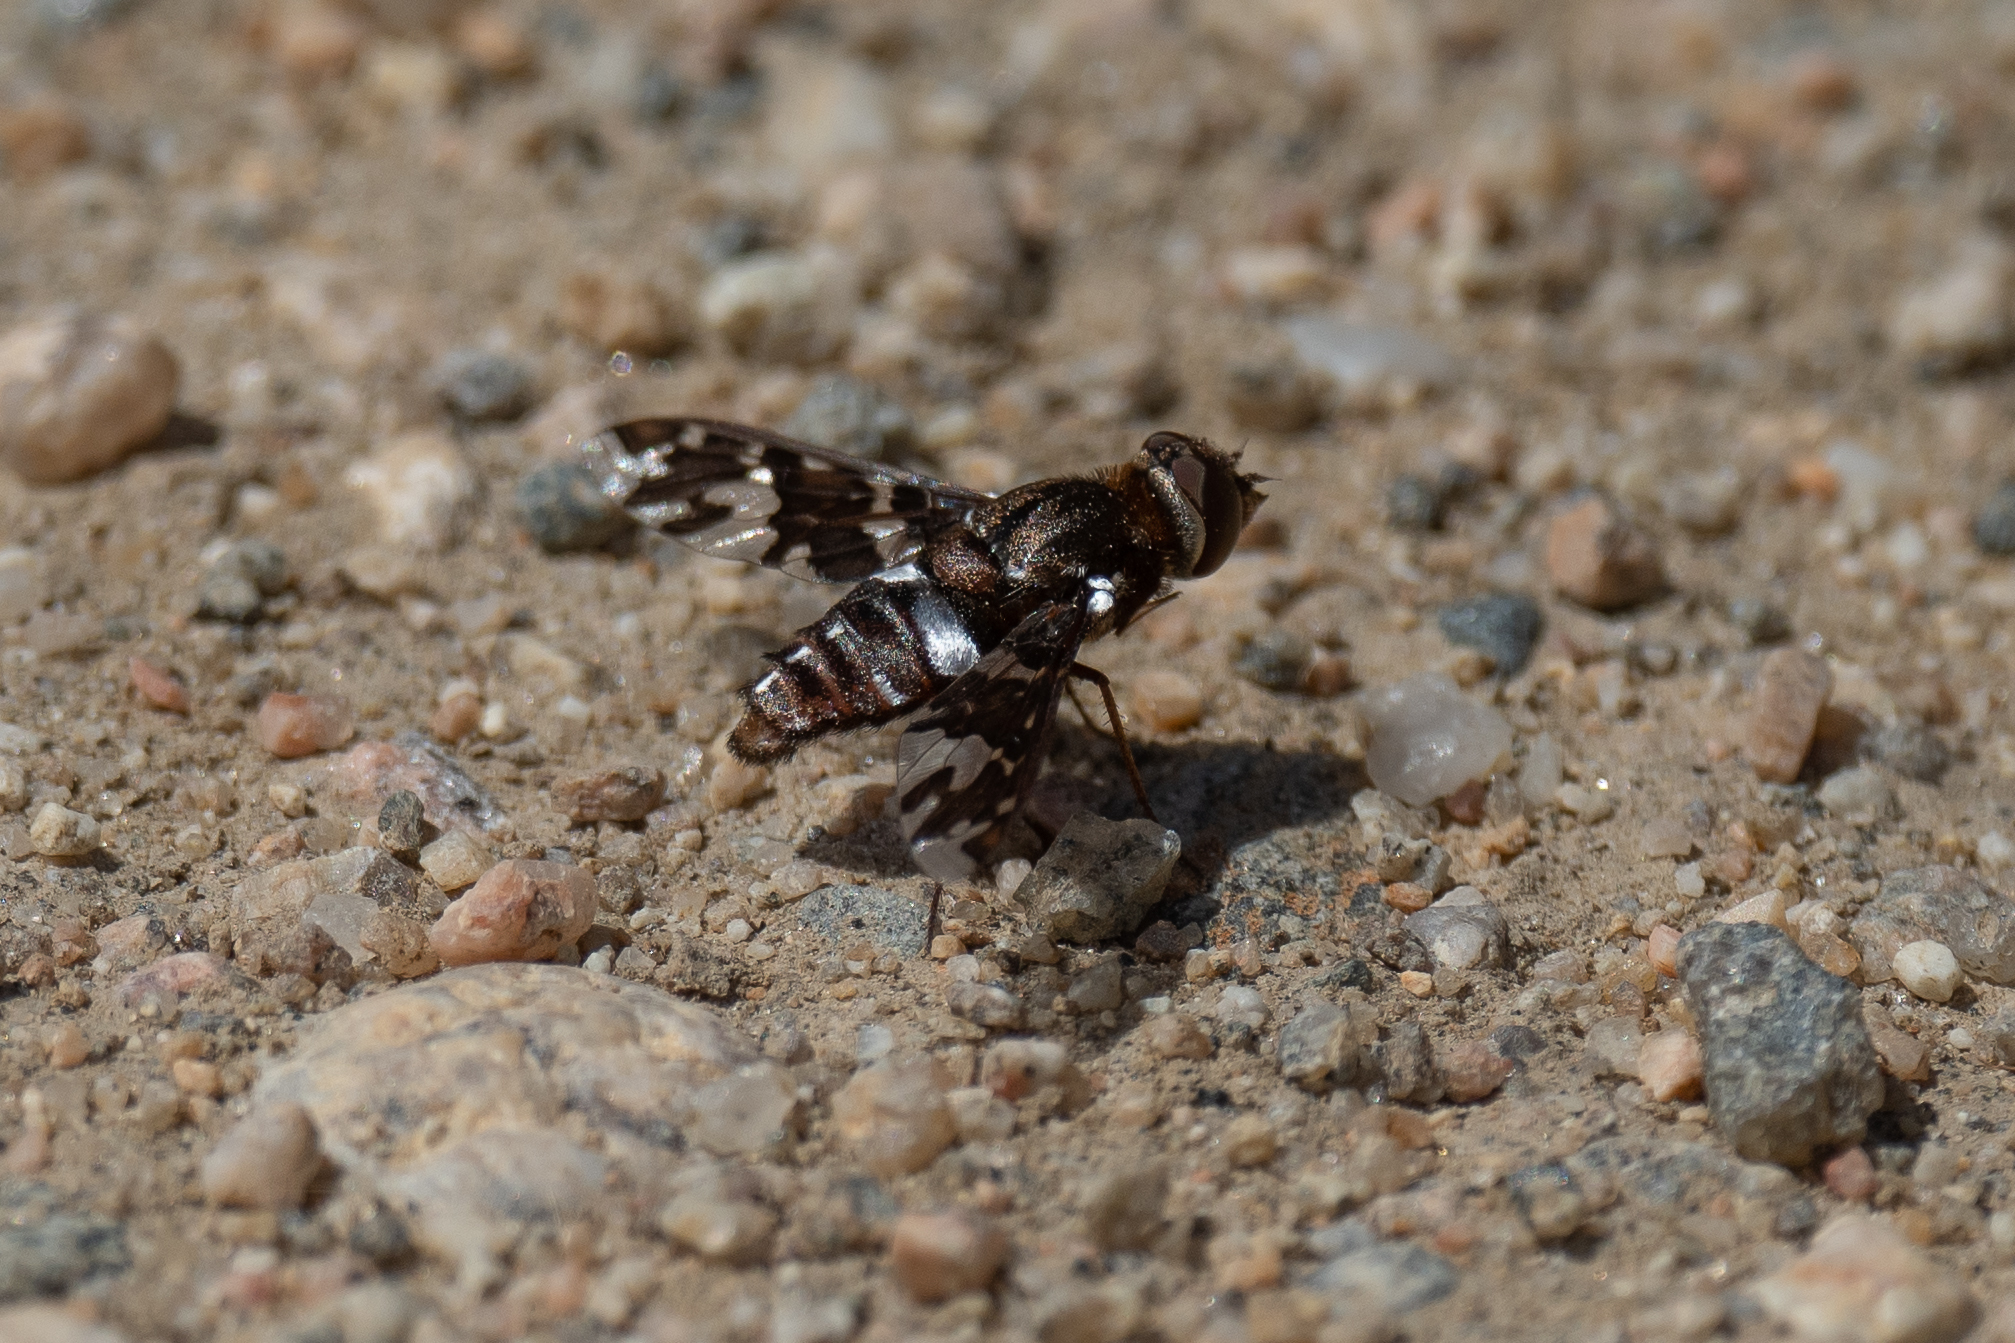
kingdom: Animalia
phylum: Arthropoda
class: Insecta
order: Diptera
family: Bombyliidae
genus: Exoprosopa
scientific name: Exoprosopa caliptera
